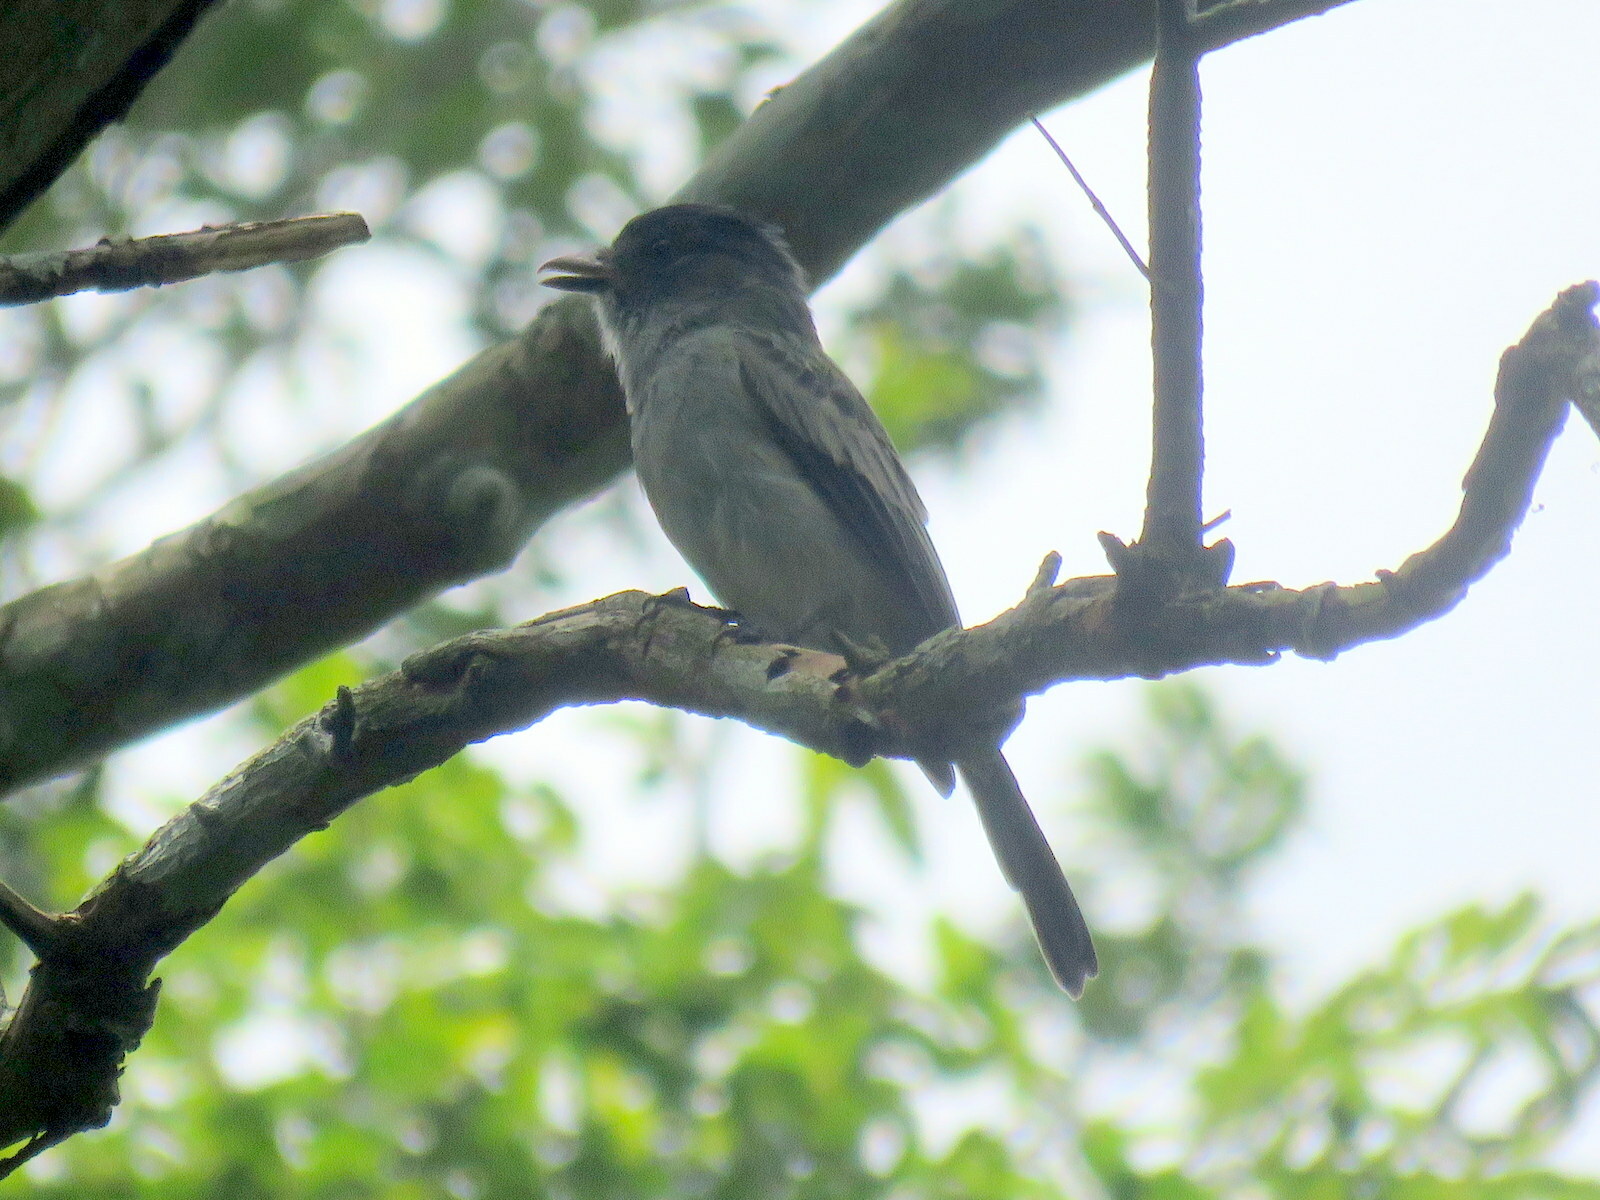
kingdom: Animalia
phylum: Chordata
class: Aves
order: Passeriformes
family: Tyrannidae
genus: Sirystes
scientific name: Sirystes sibilator
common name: Sirystes
